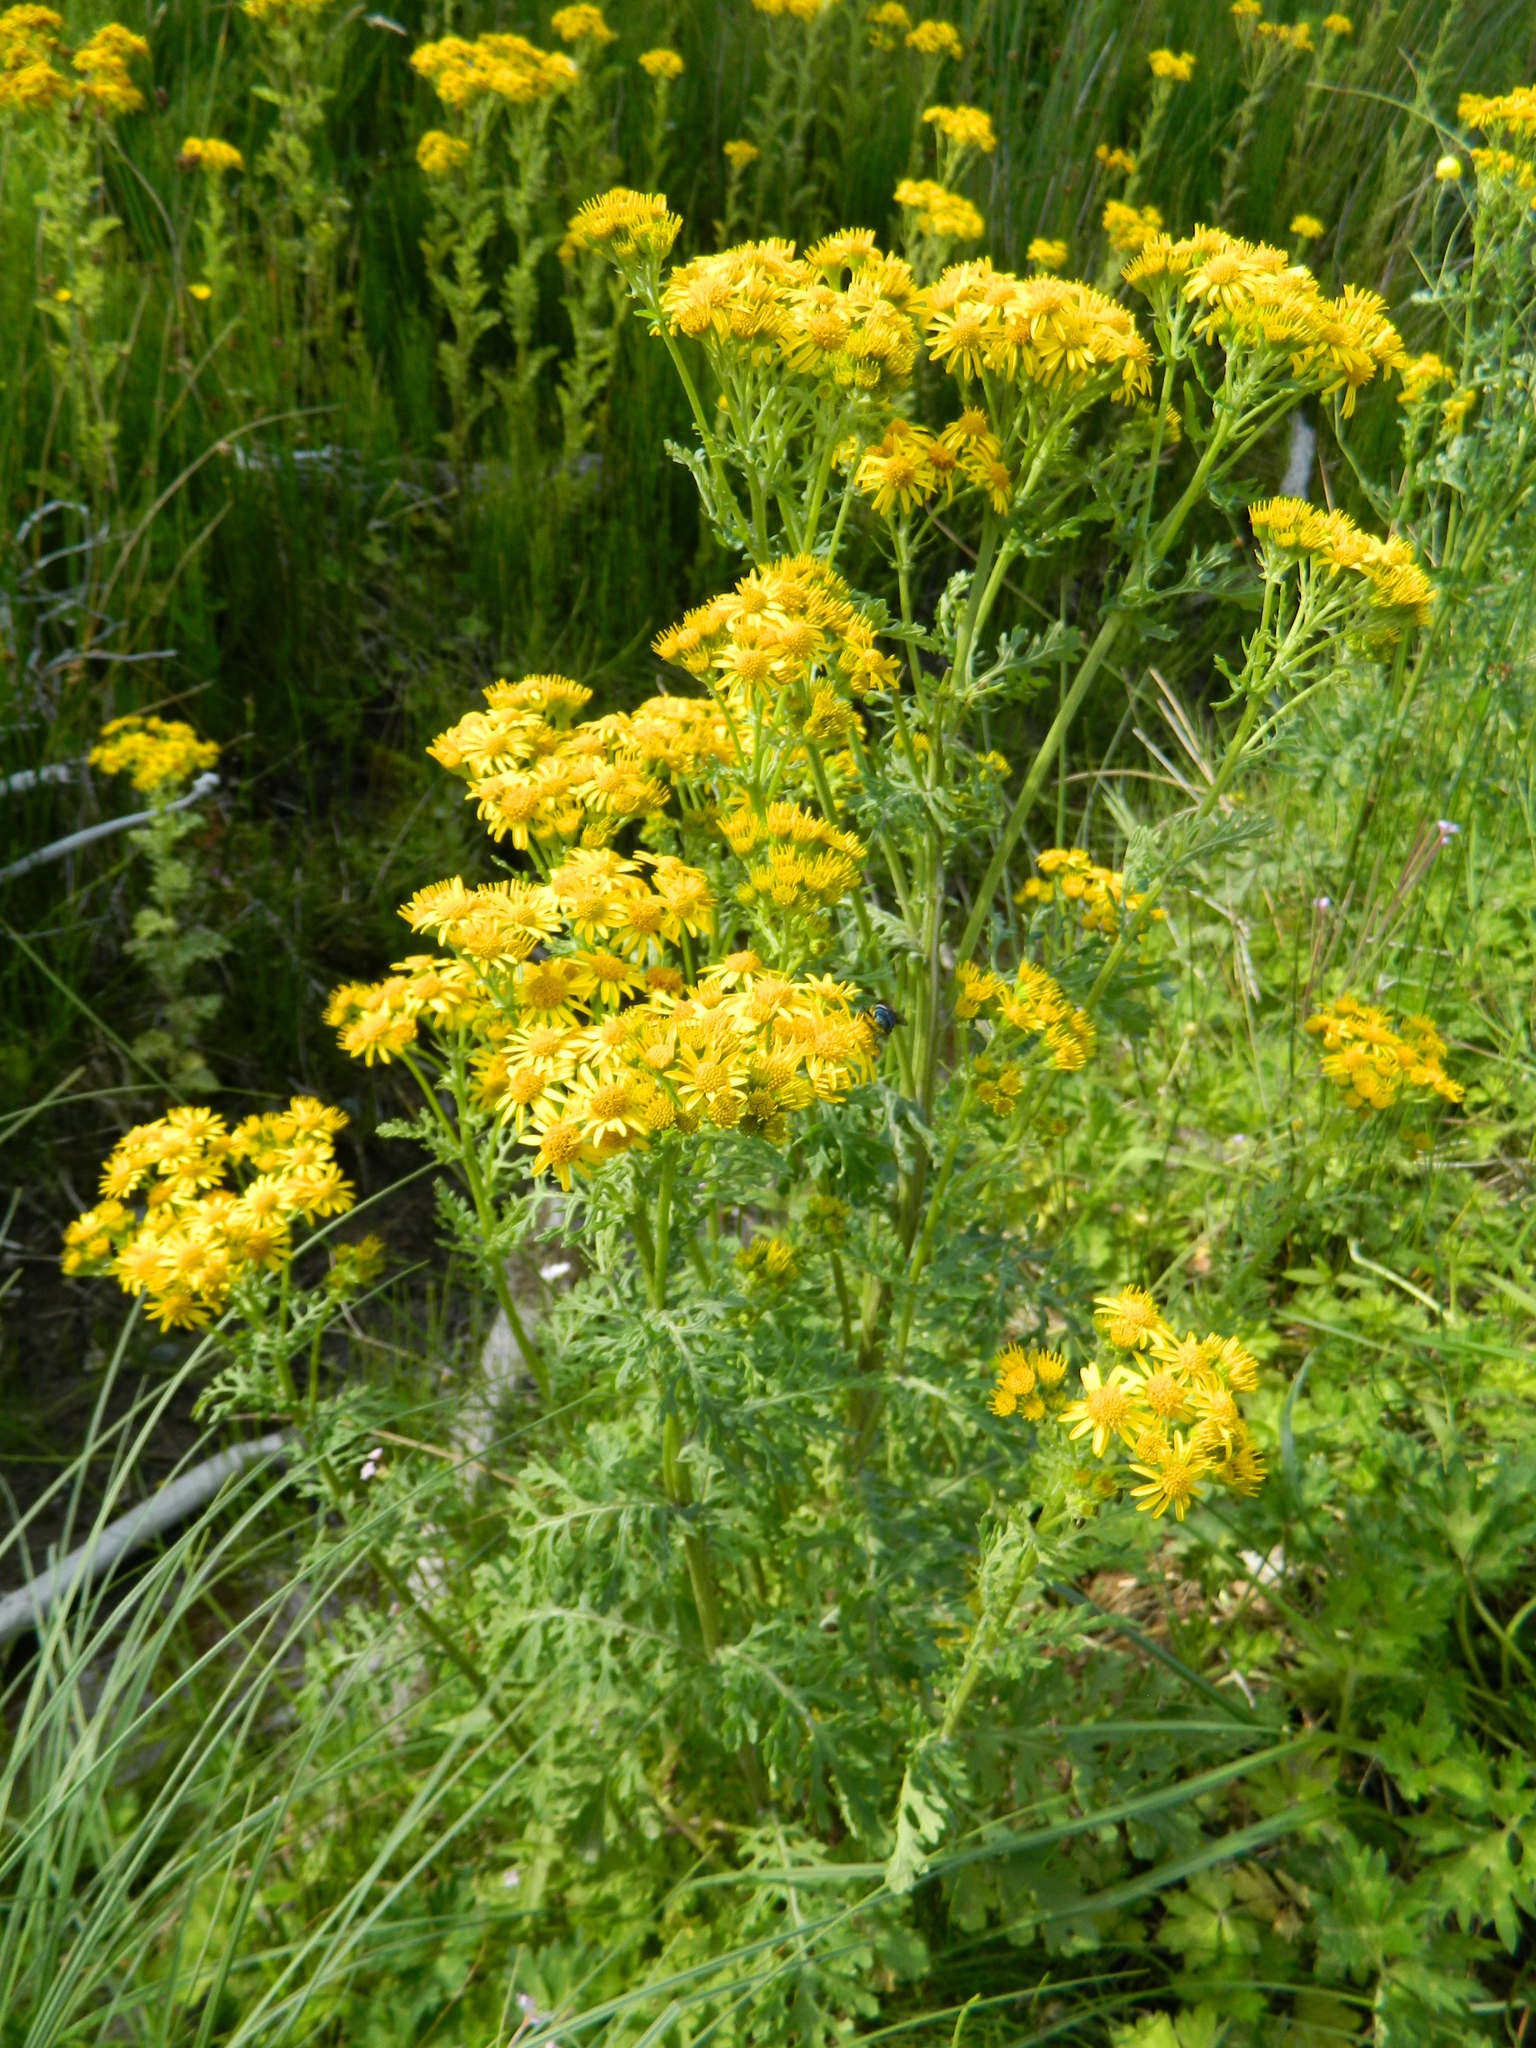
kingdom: Plantae
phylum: Tracheophyta
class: Magnoliopsida
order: Asterales
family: Asteraceae
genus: Jacobaea
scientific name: Jacobaea vulgaris
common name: Stinking willie
